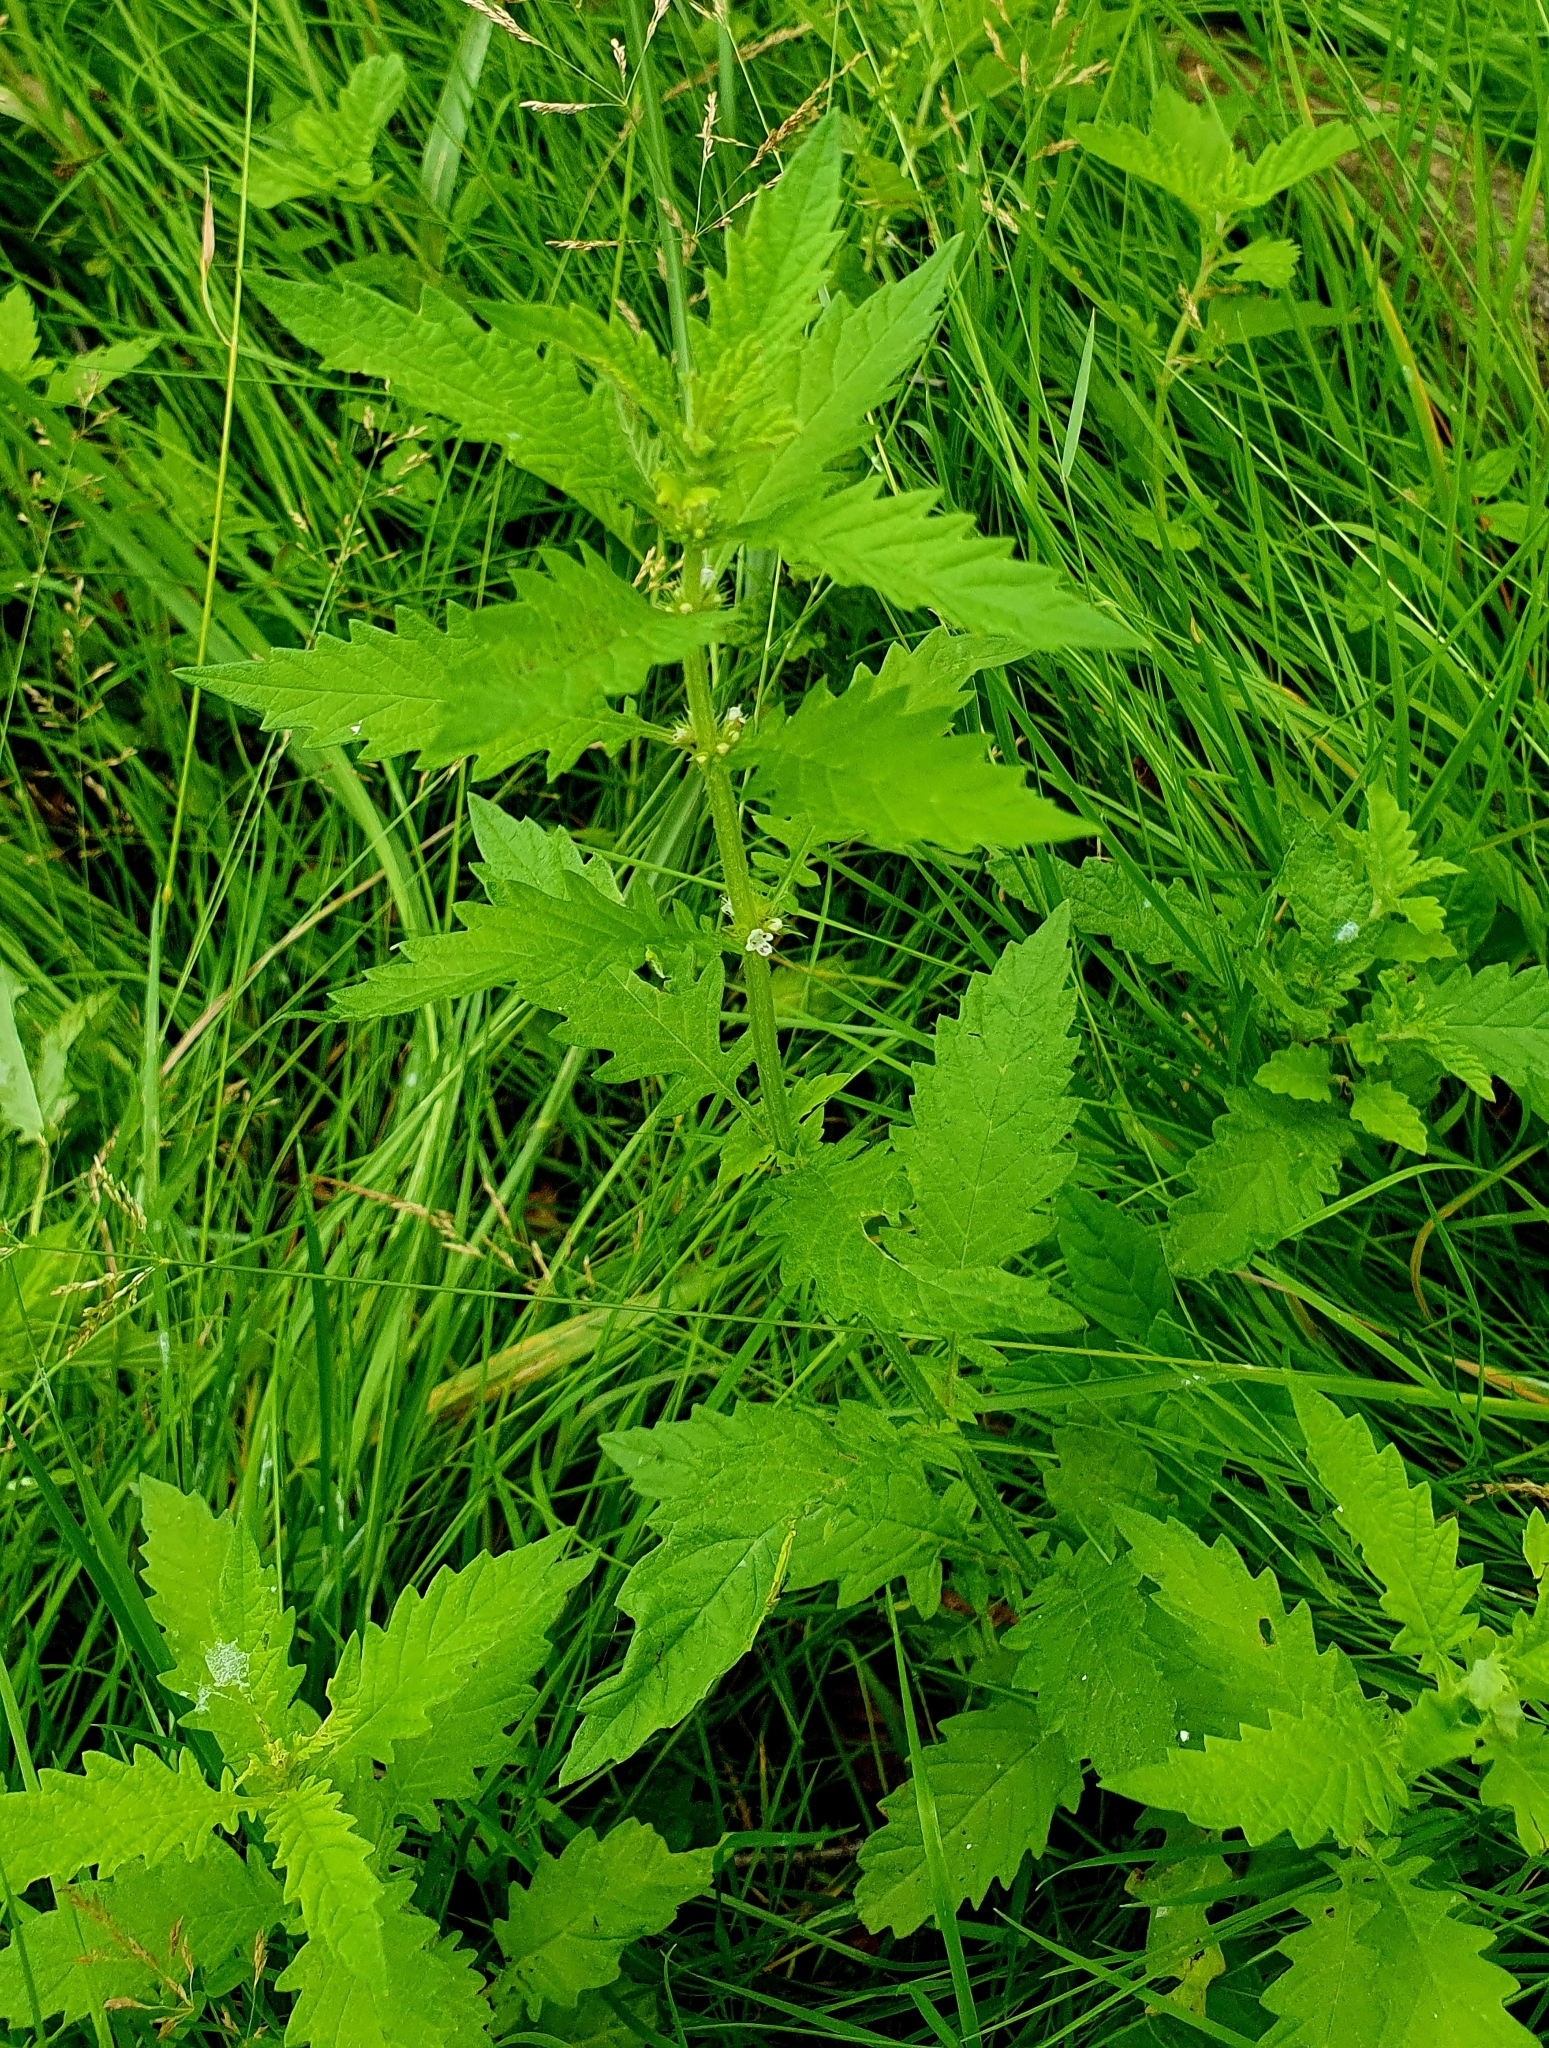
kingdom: Plantae
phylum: Tracheophyta
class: Magnoliopsida
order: Lamiales
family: Lamiaceae
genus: Lycopus
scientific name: Lycopus europaeus
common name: European bugleweed
